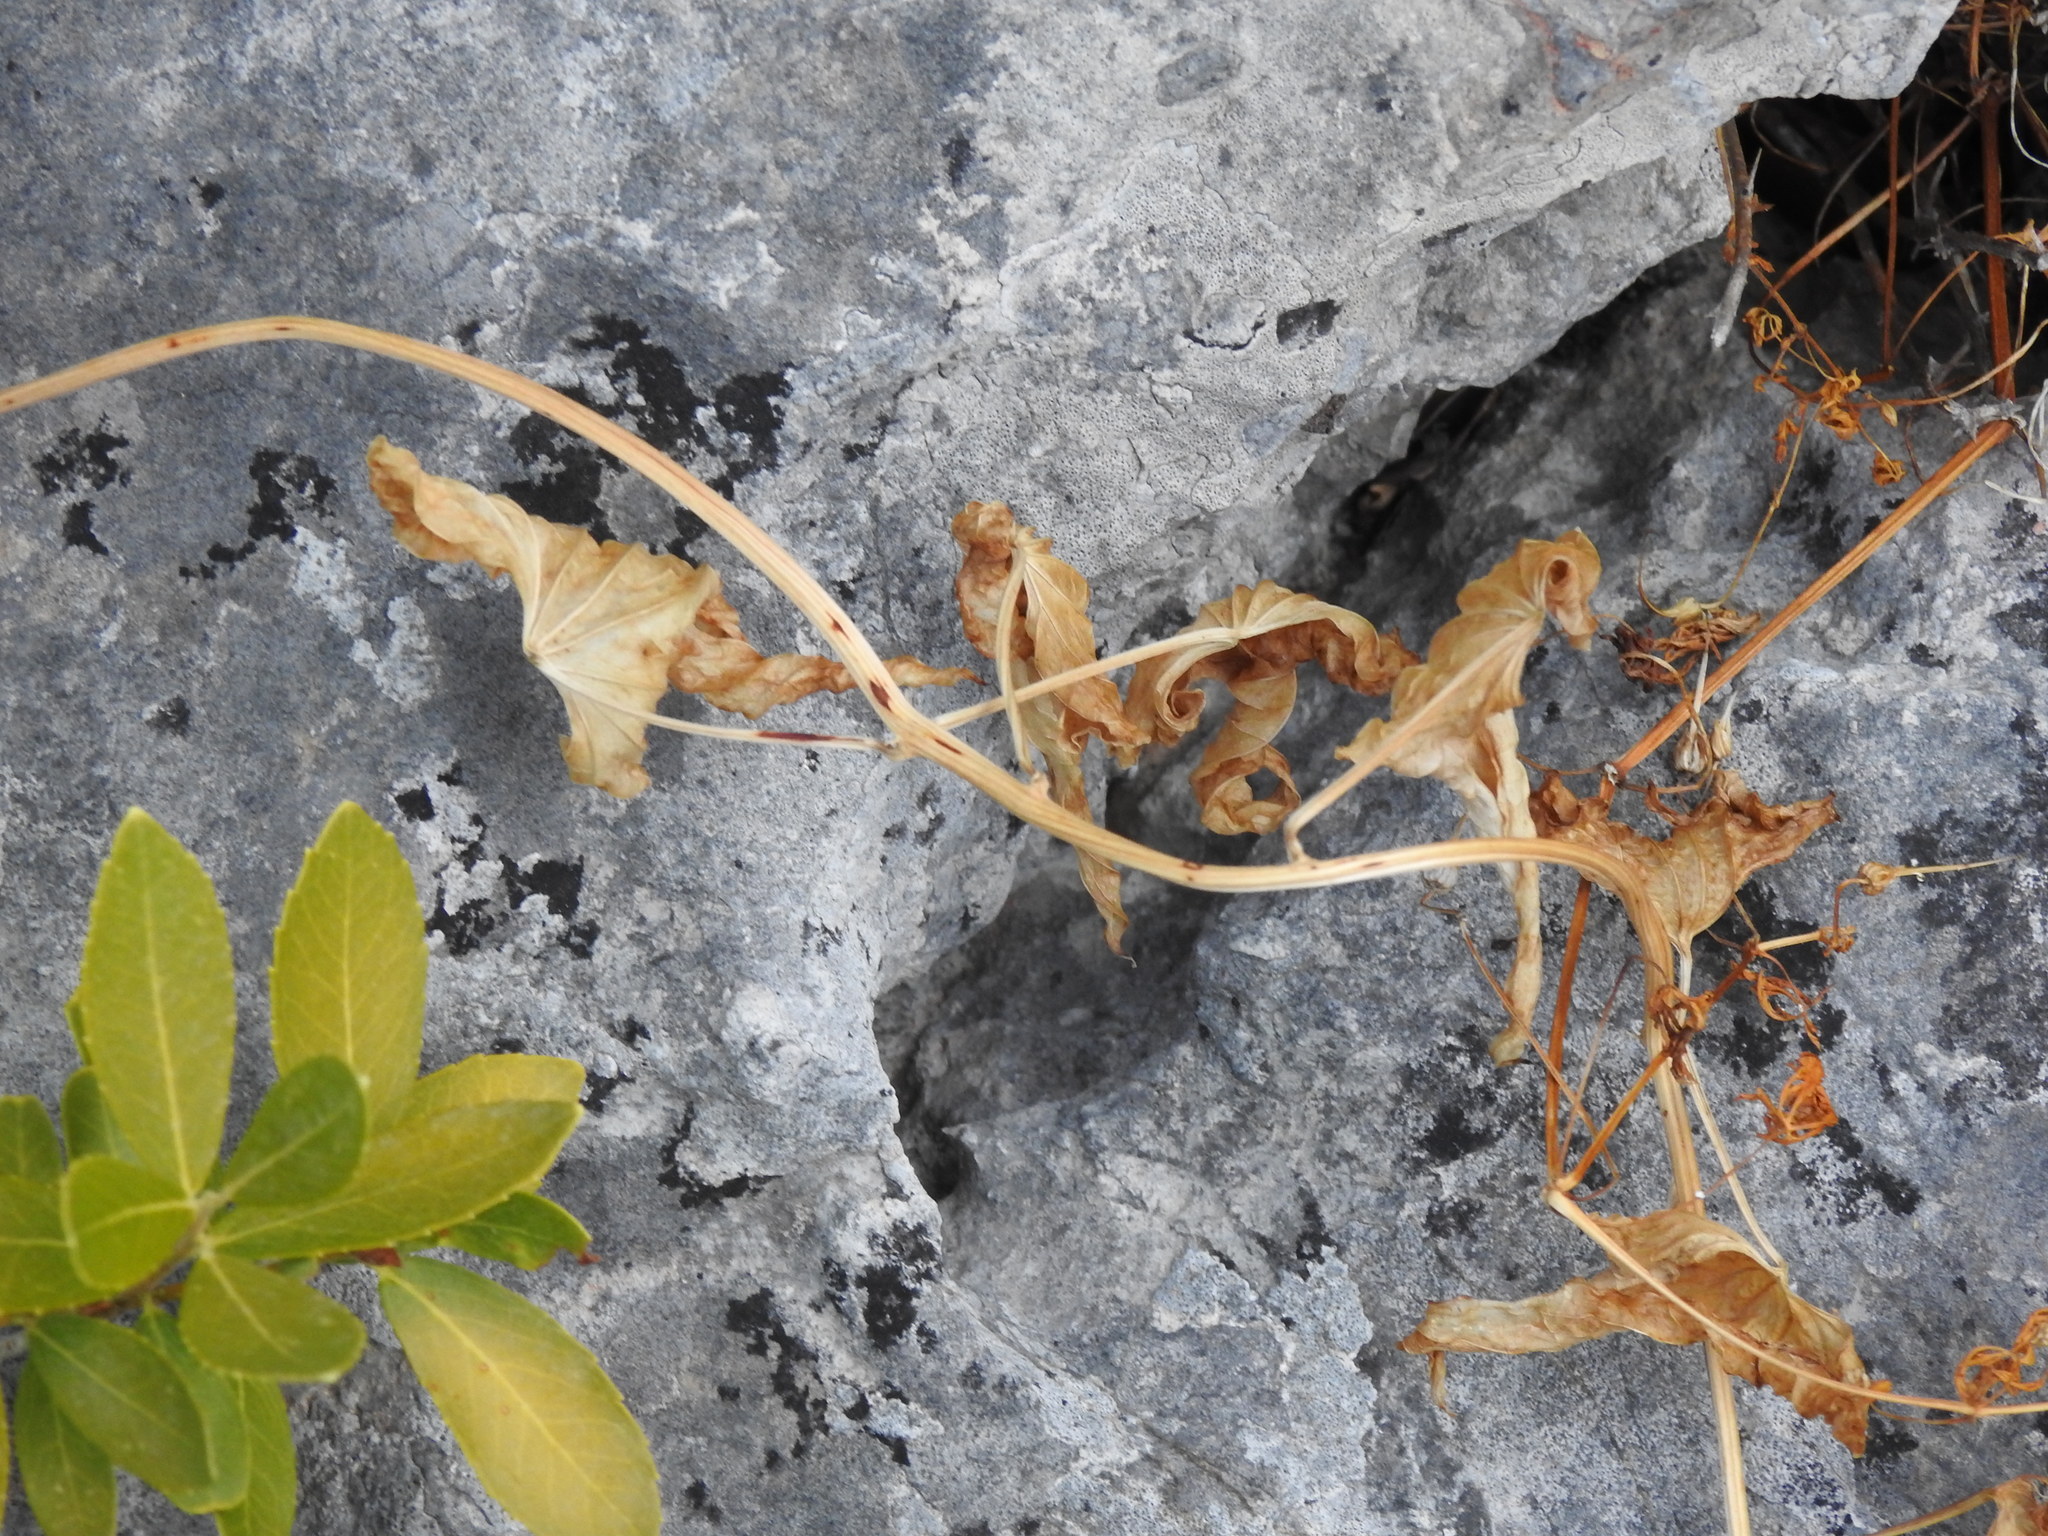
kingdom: Plantae
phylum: Tracheophyta
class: Liliopsida
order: Dioscoreales
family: Dioscoreaceae
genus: Dioscorea
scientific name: Dioscorea communis
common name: Black-bindweed
